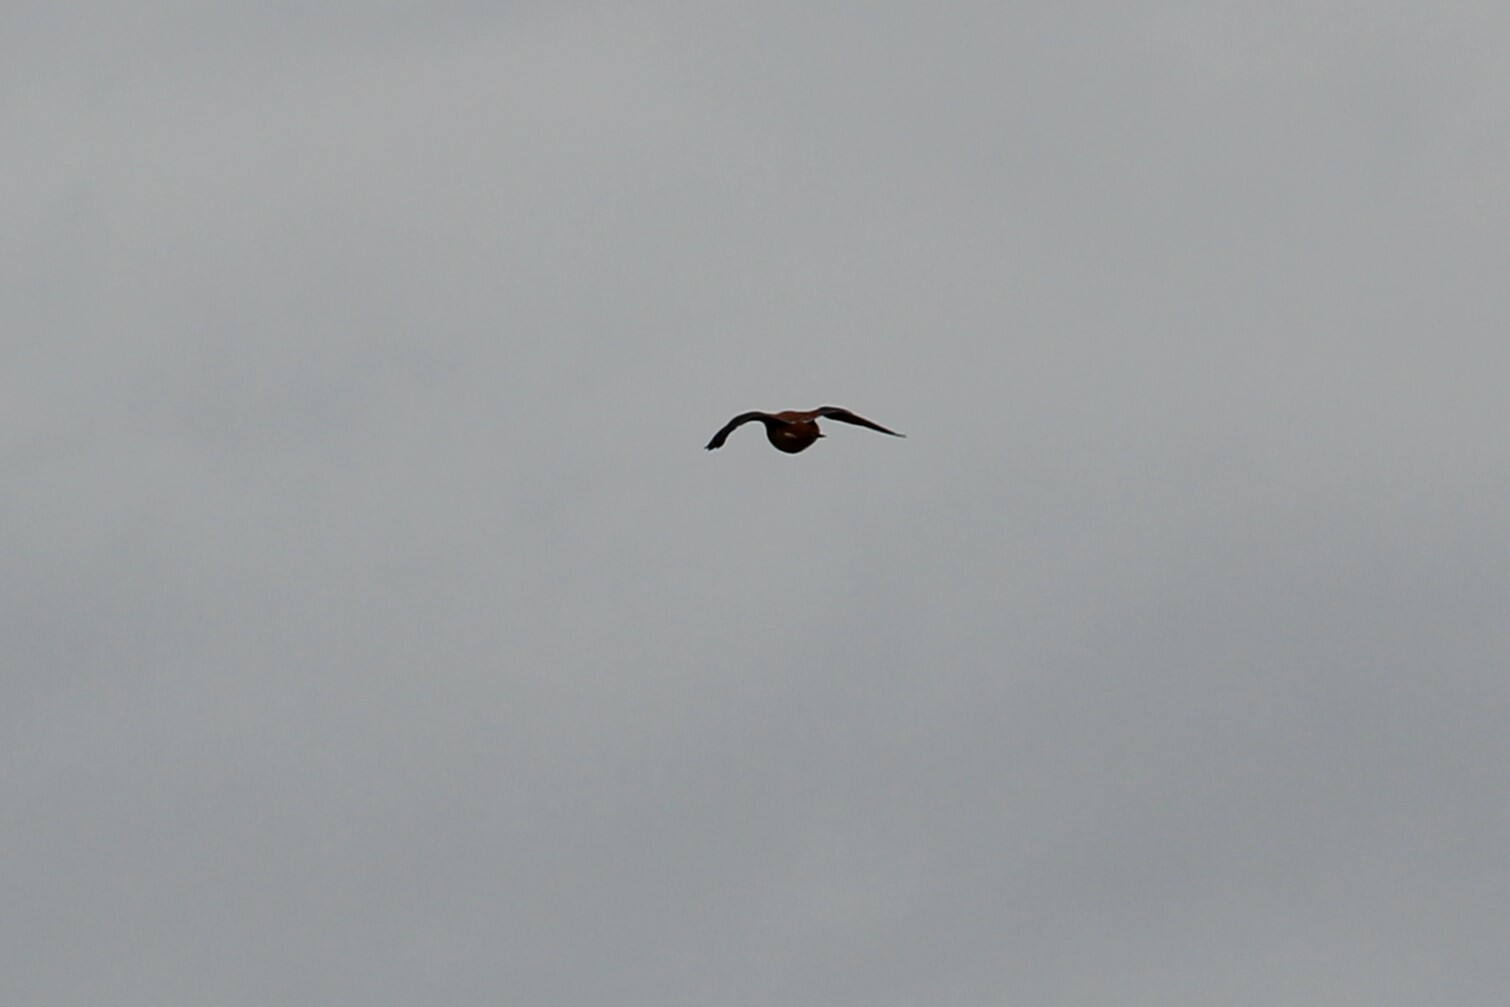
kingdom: Animalia
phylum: Chordata
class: Aves
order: Falconiformes
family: Falconidae
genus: Falco
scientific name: Falco sparverius
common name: American kestrel
